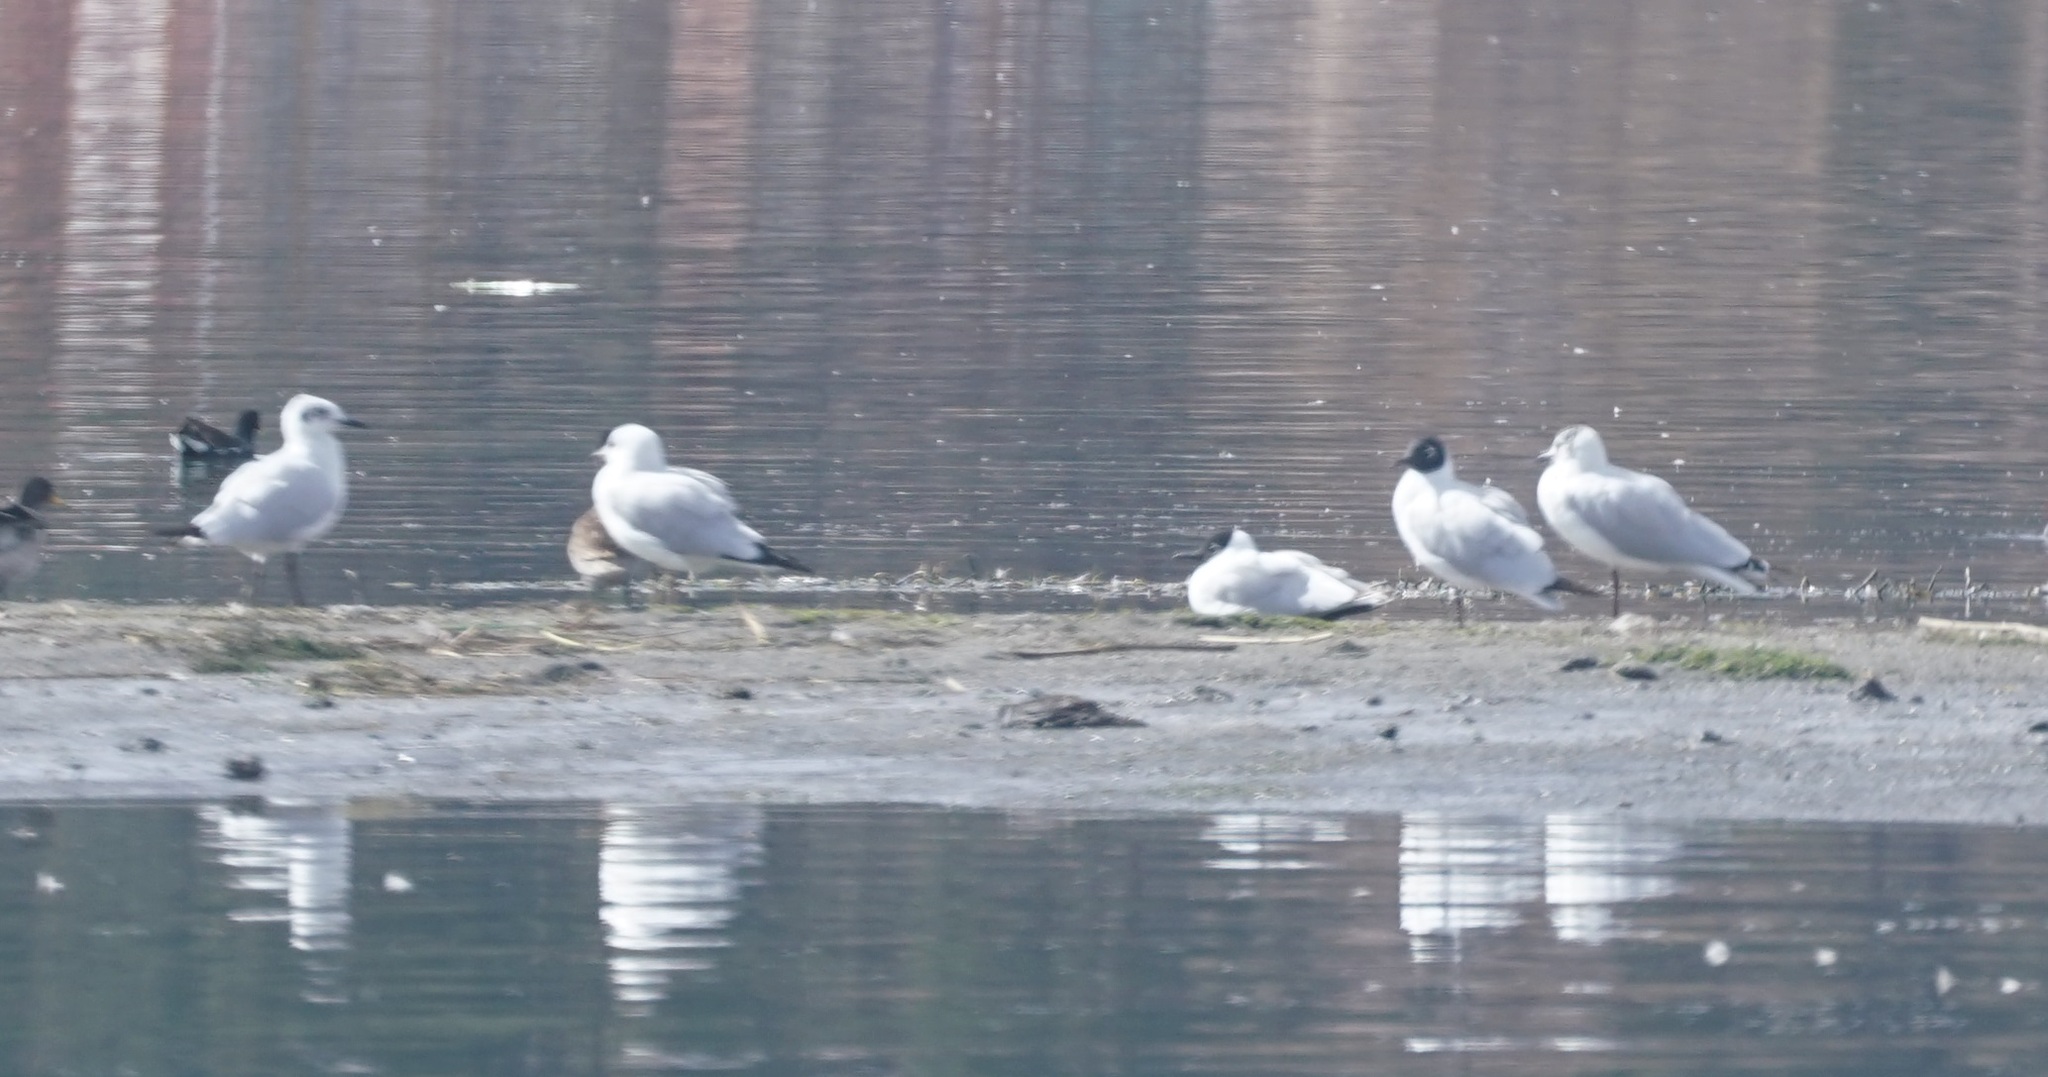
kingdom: Animalia
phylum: Chordata
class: Aves
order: Charadriiformes
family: Laridae
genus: Chroicocephalus
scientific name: Chroicocephalus serranus
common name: Andean gull
